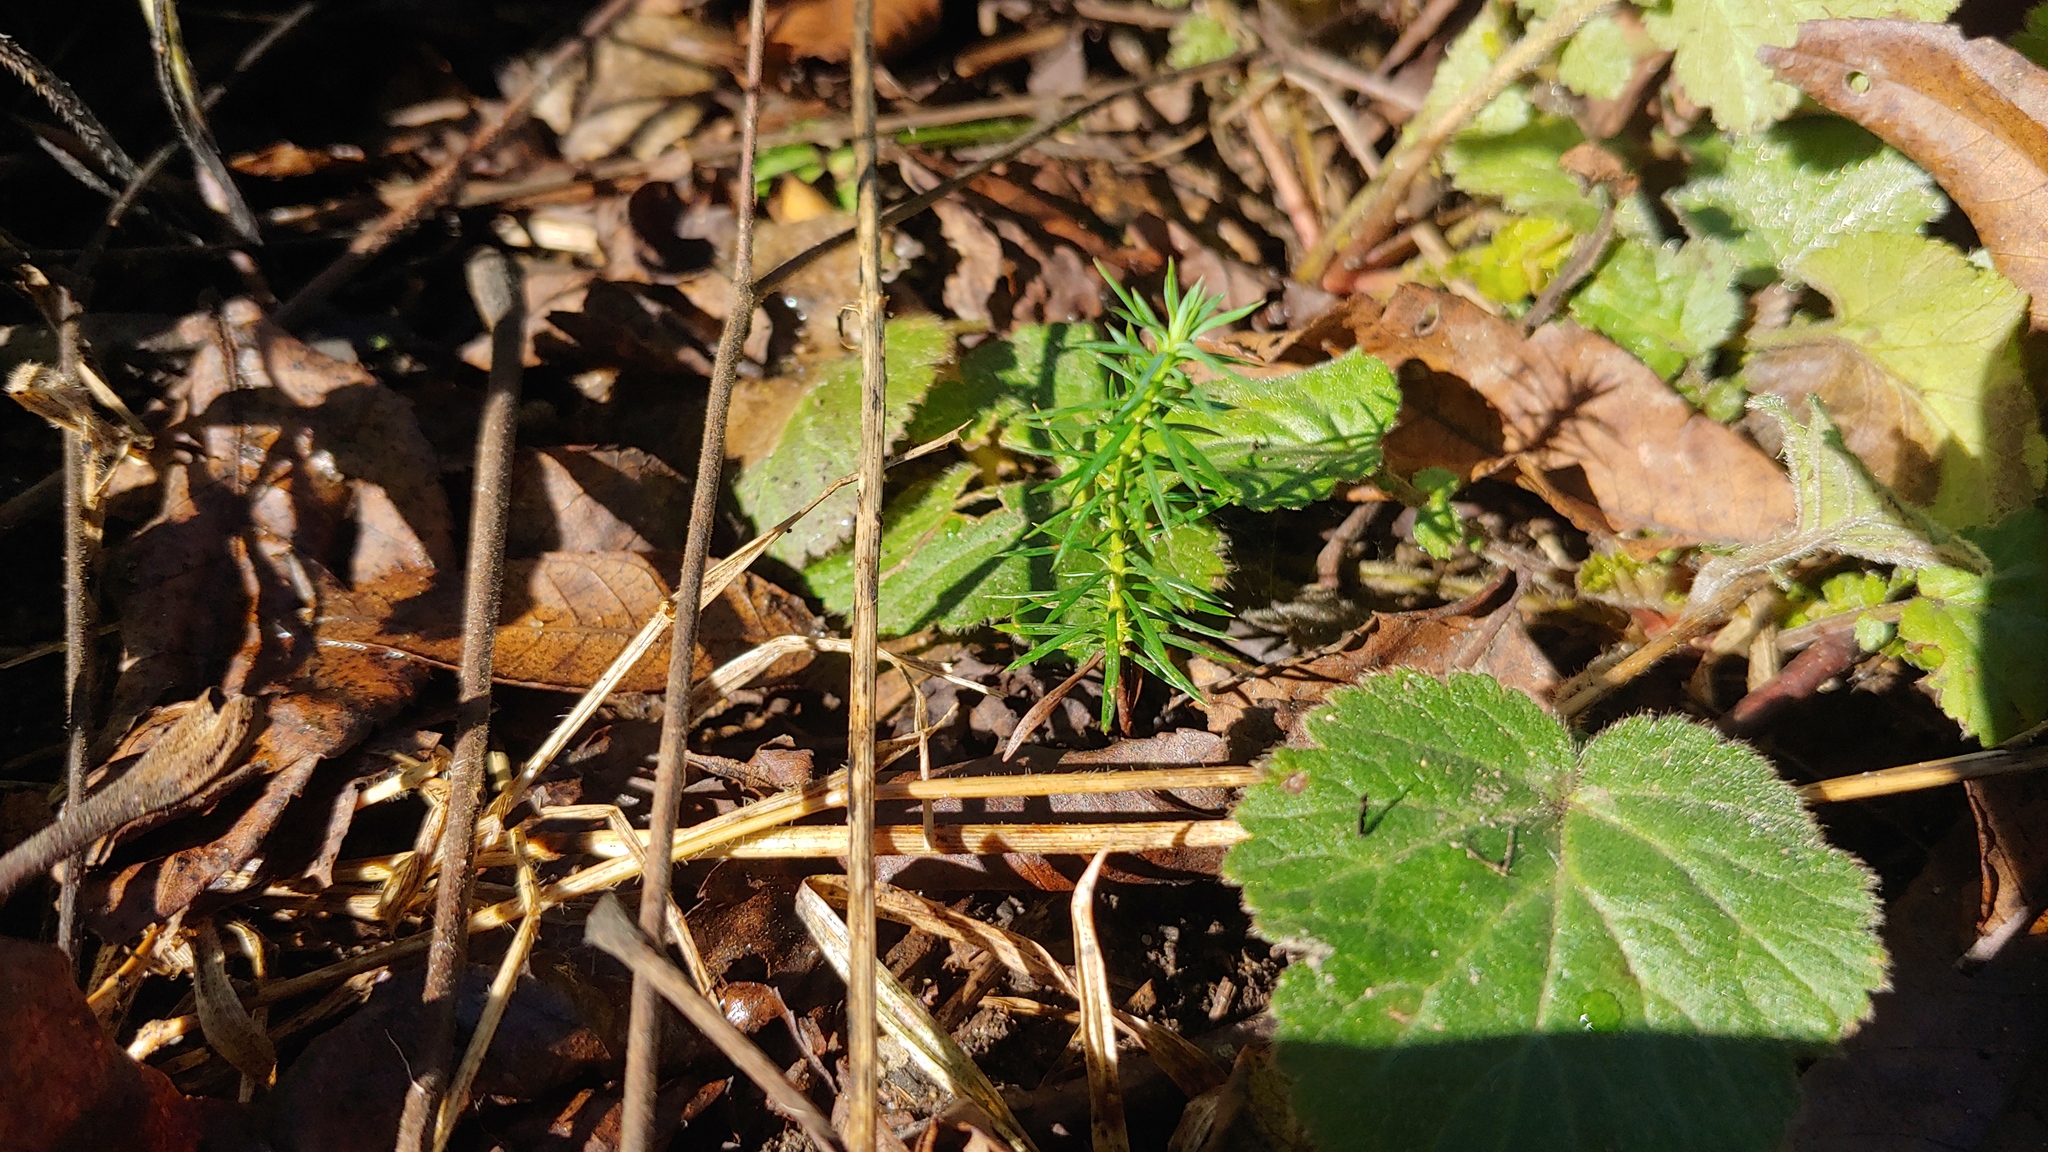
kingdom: Plantae
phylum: Tracheophyta
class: Pinopsida
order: Pinales
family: Cupressaceae
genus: Juniperus
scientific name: Juniperus virginiana
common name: Red juniper
